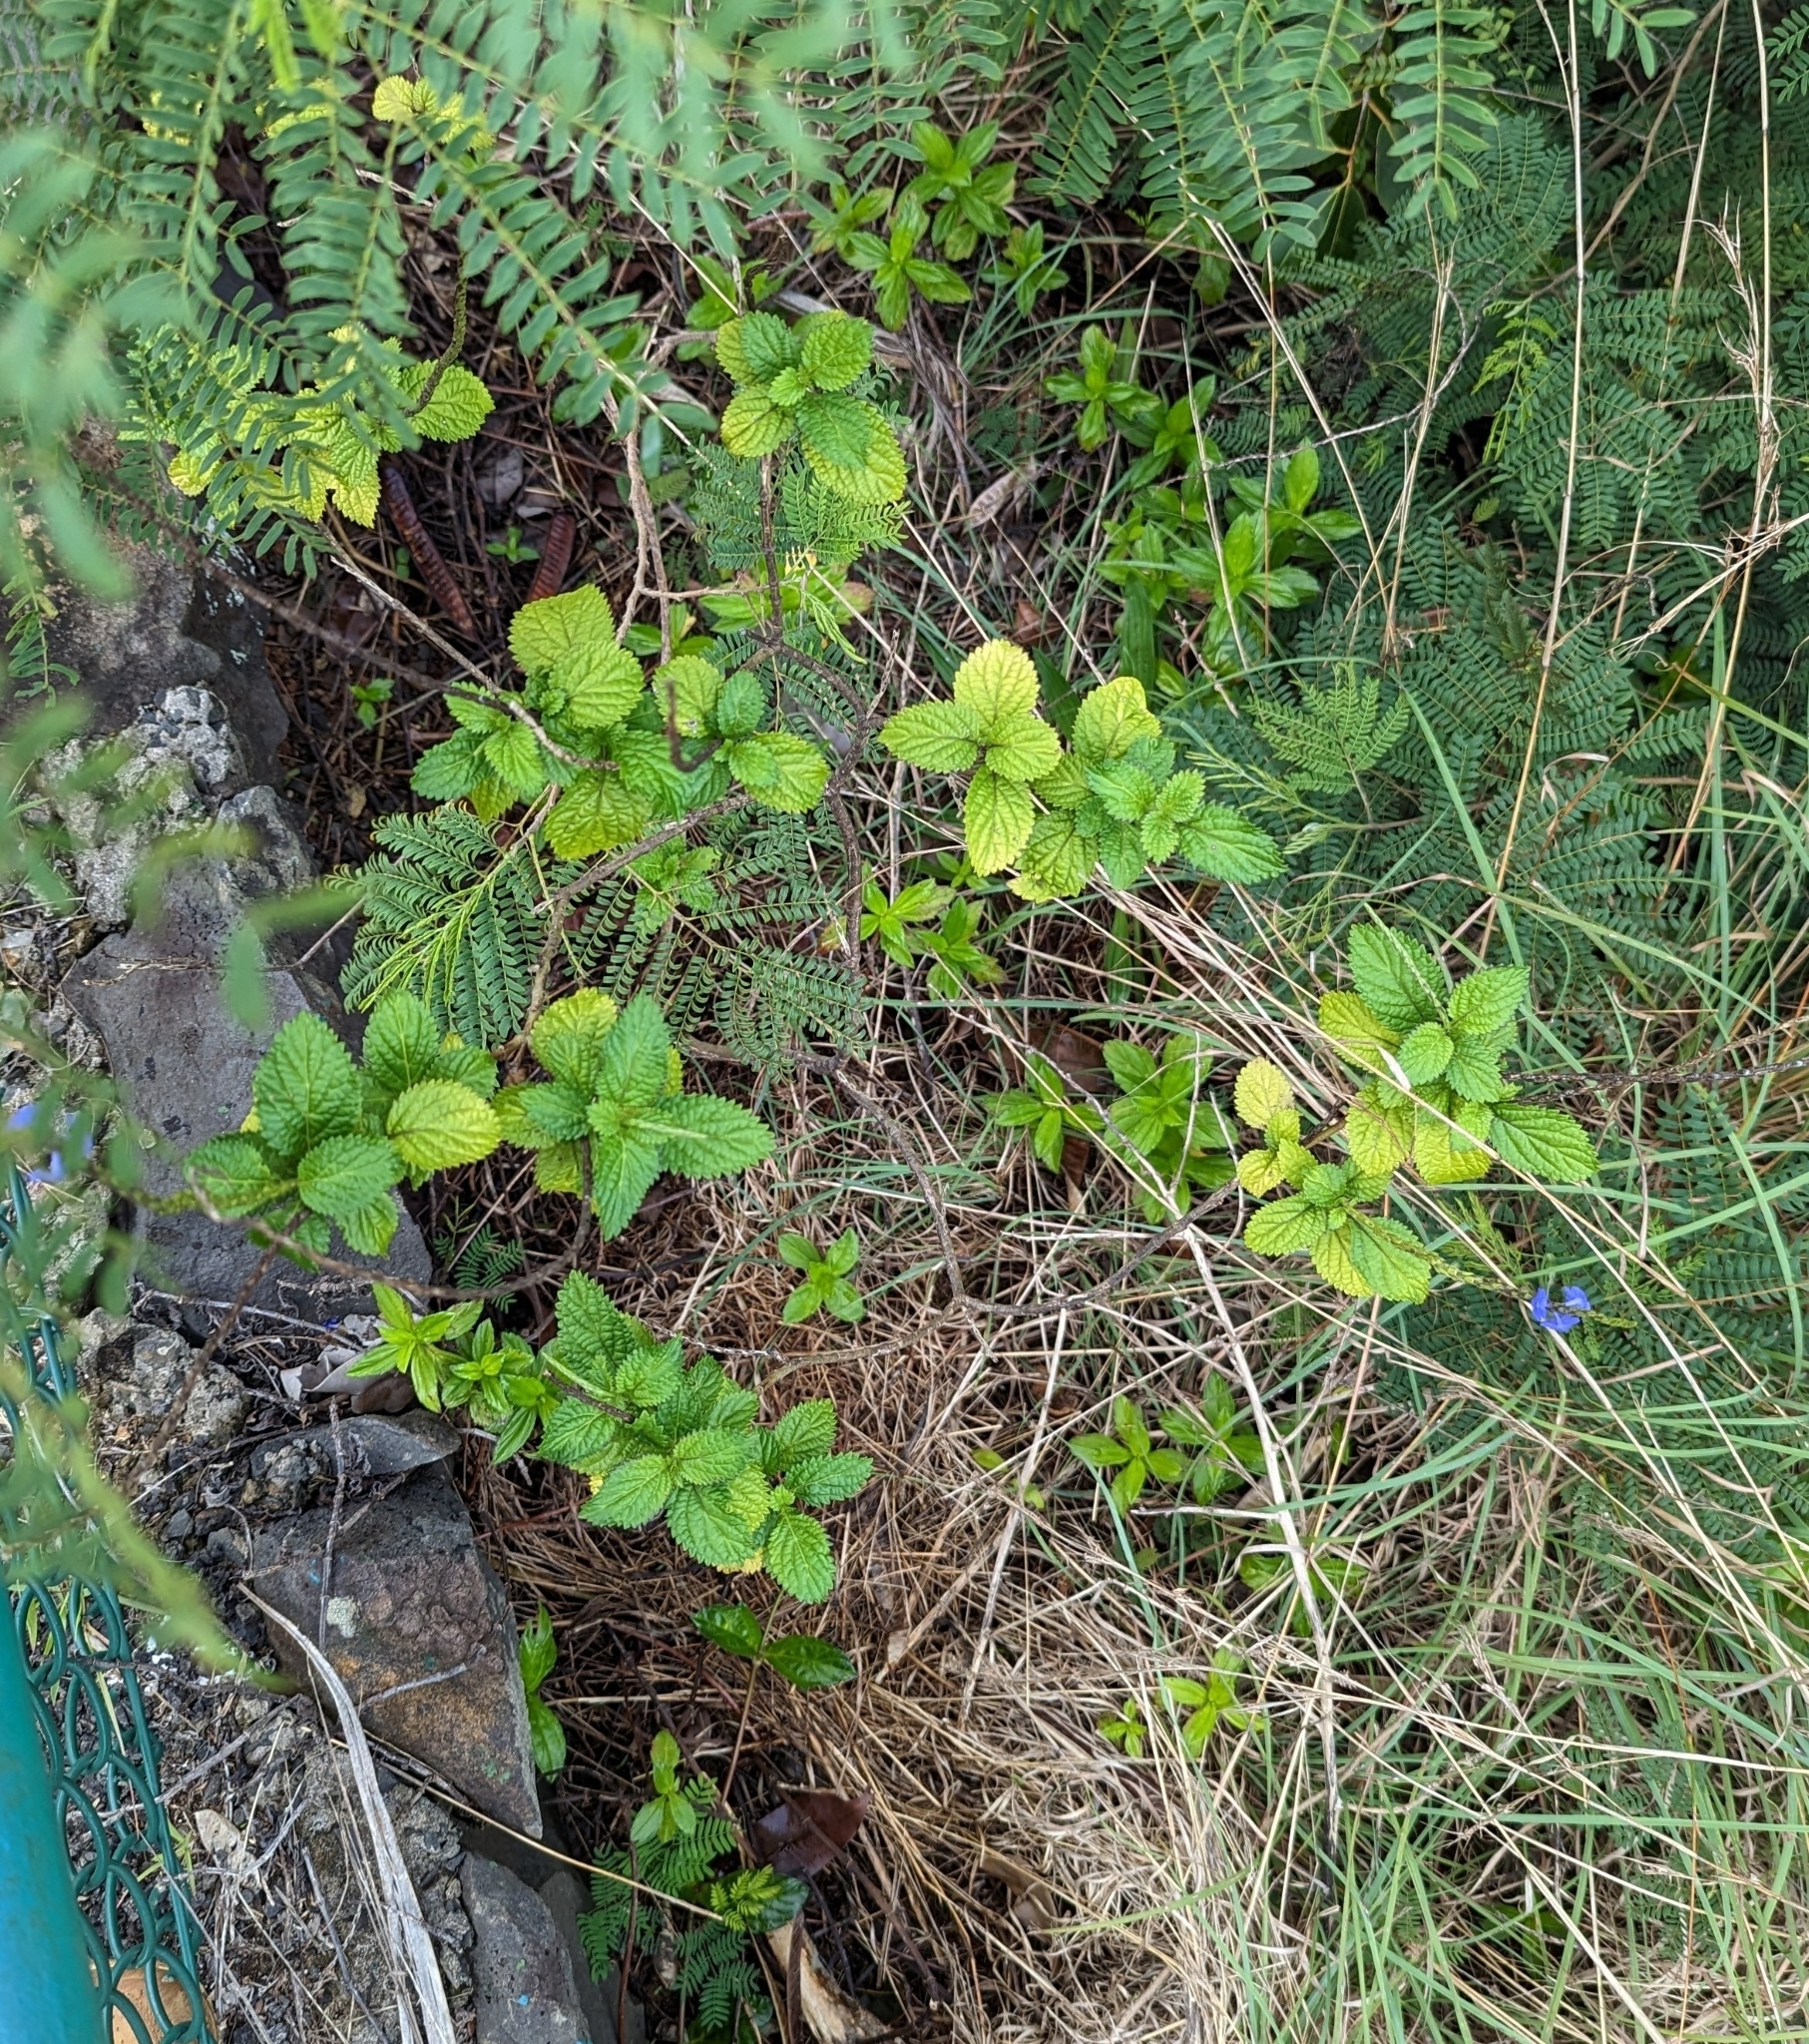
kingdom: Plantae
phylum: Tracheophyta
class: Magnoliopsida
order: Lamiales
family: Verbenaceae
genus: Stachytarpheta
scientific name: Stachytarpheta cayennensis
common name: Cayenne porterweed
